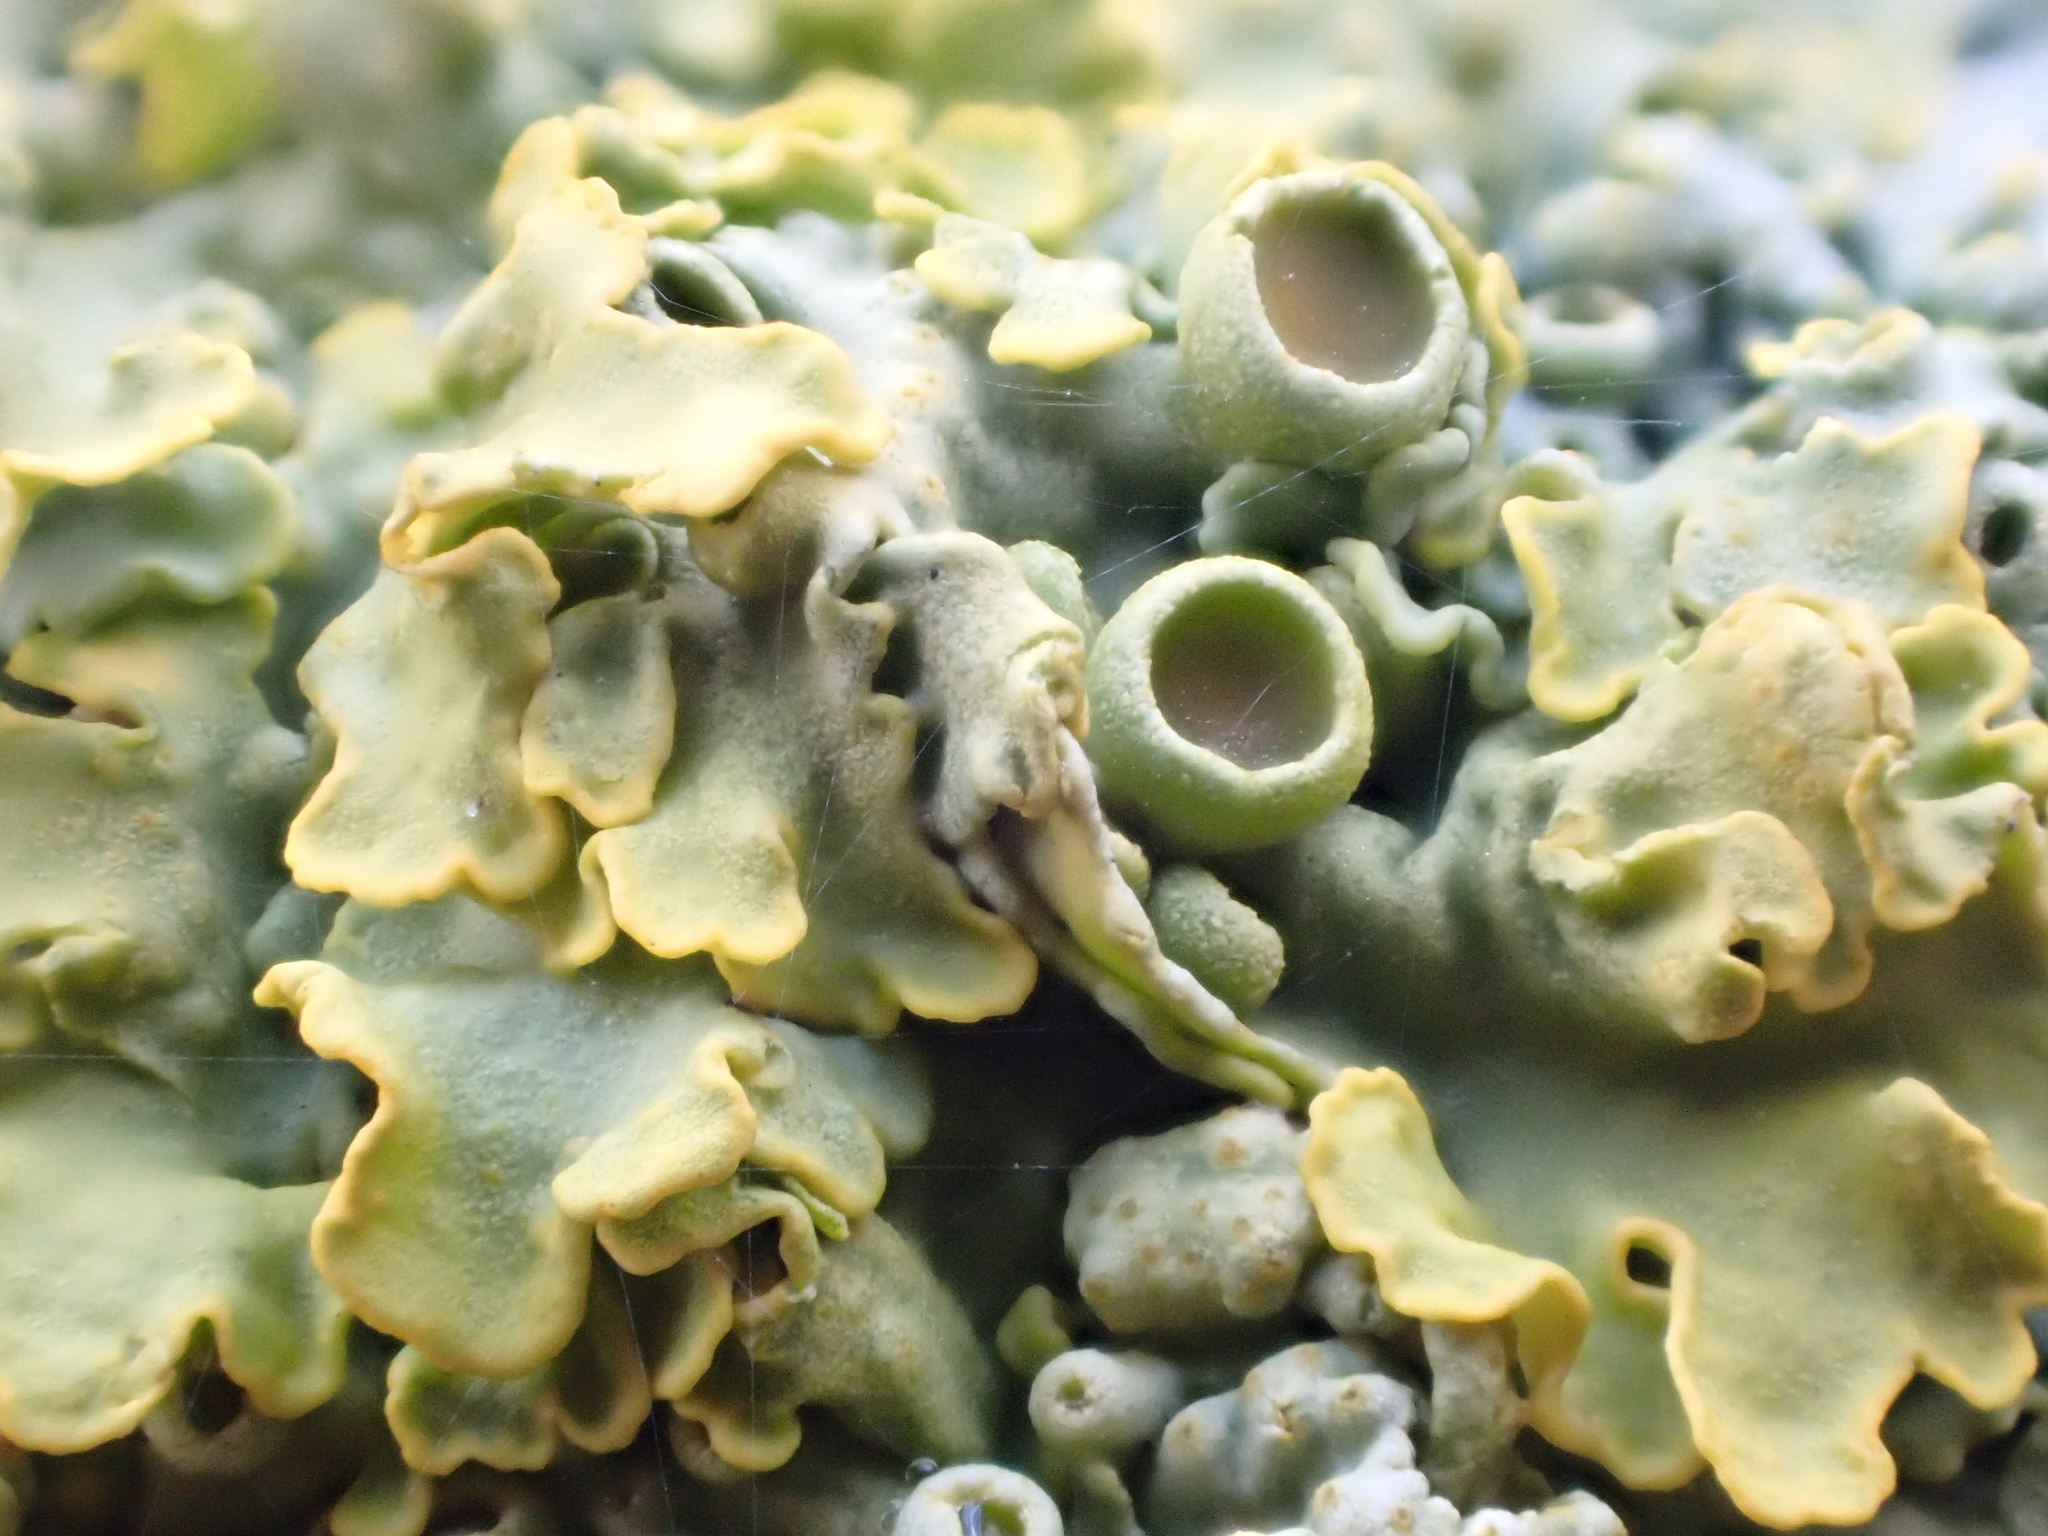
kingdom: Fungi
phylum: Ascomycota
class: Lecanoromycetes
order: Teloschistales
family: Teloschistaceae
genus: Xanthoria
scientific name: Xanthoria parietina
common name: Common orange lichen
